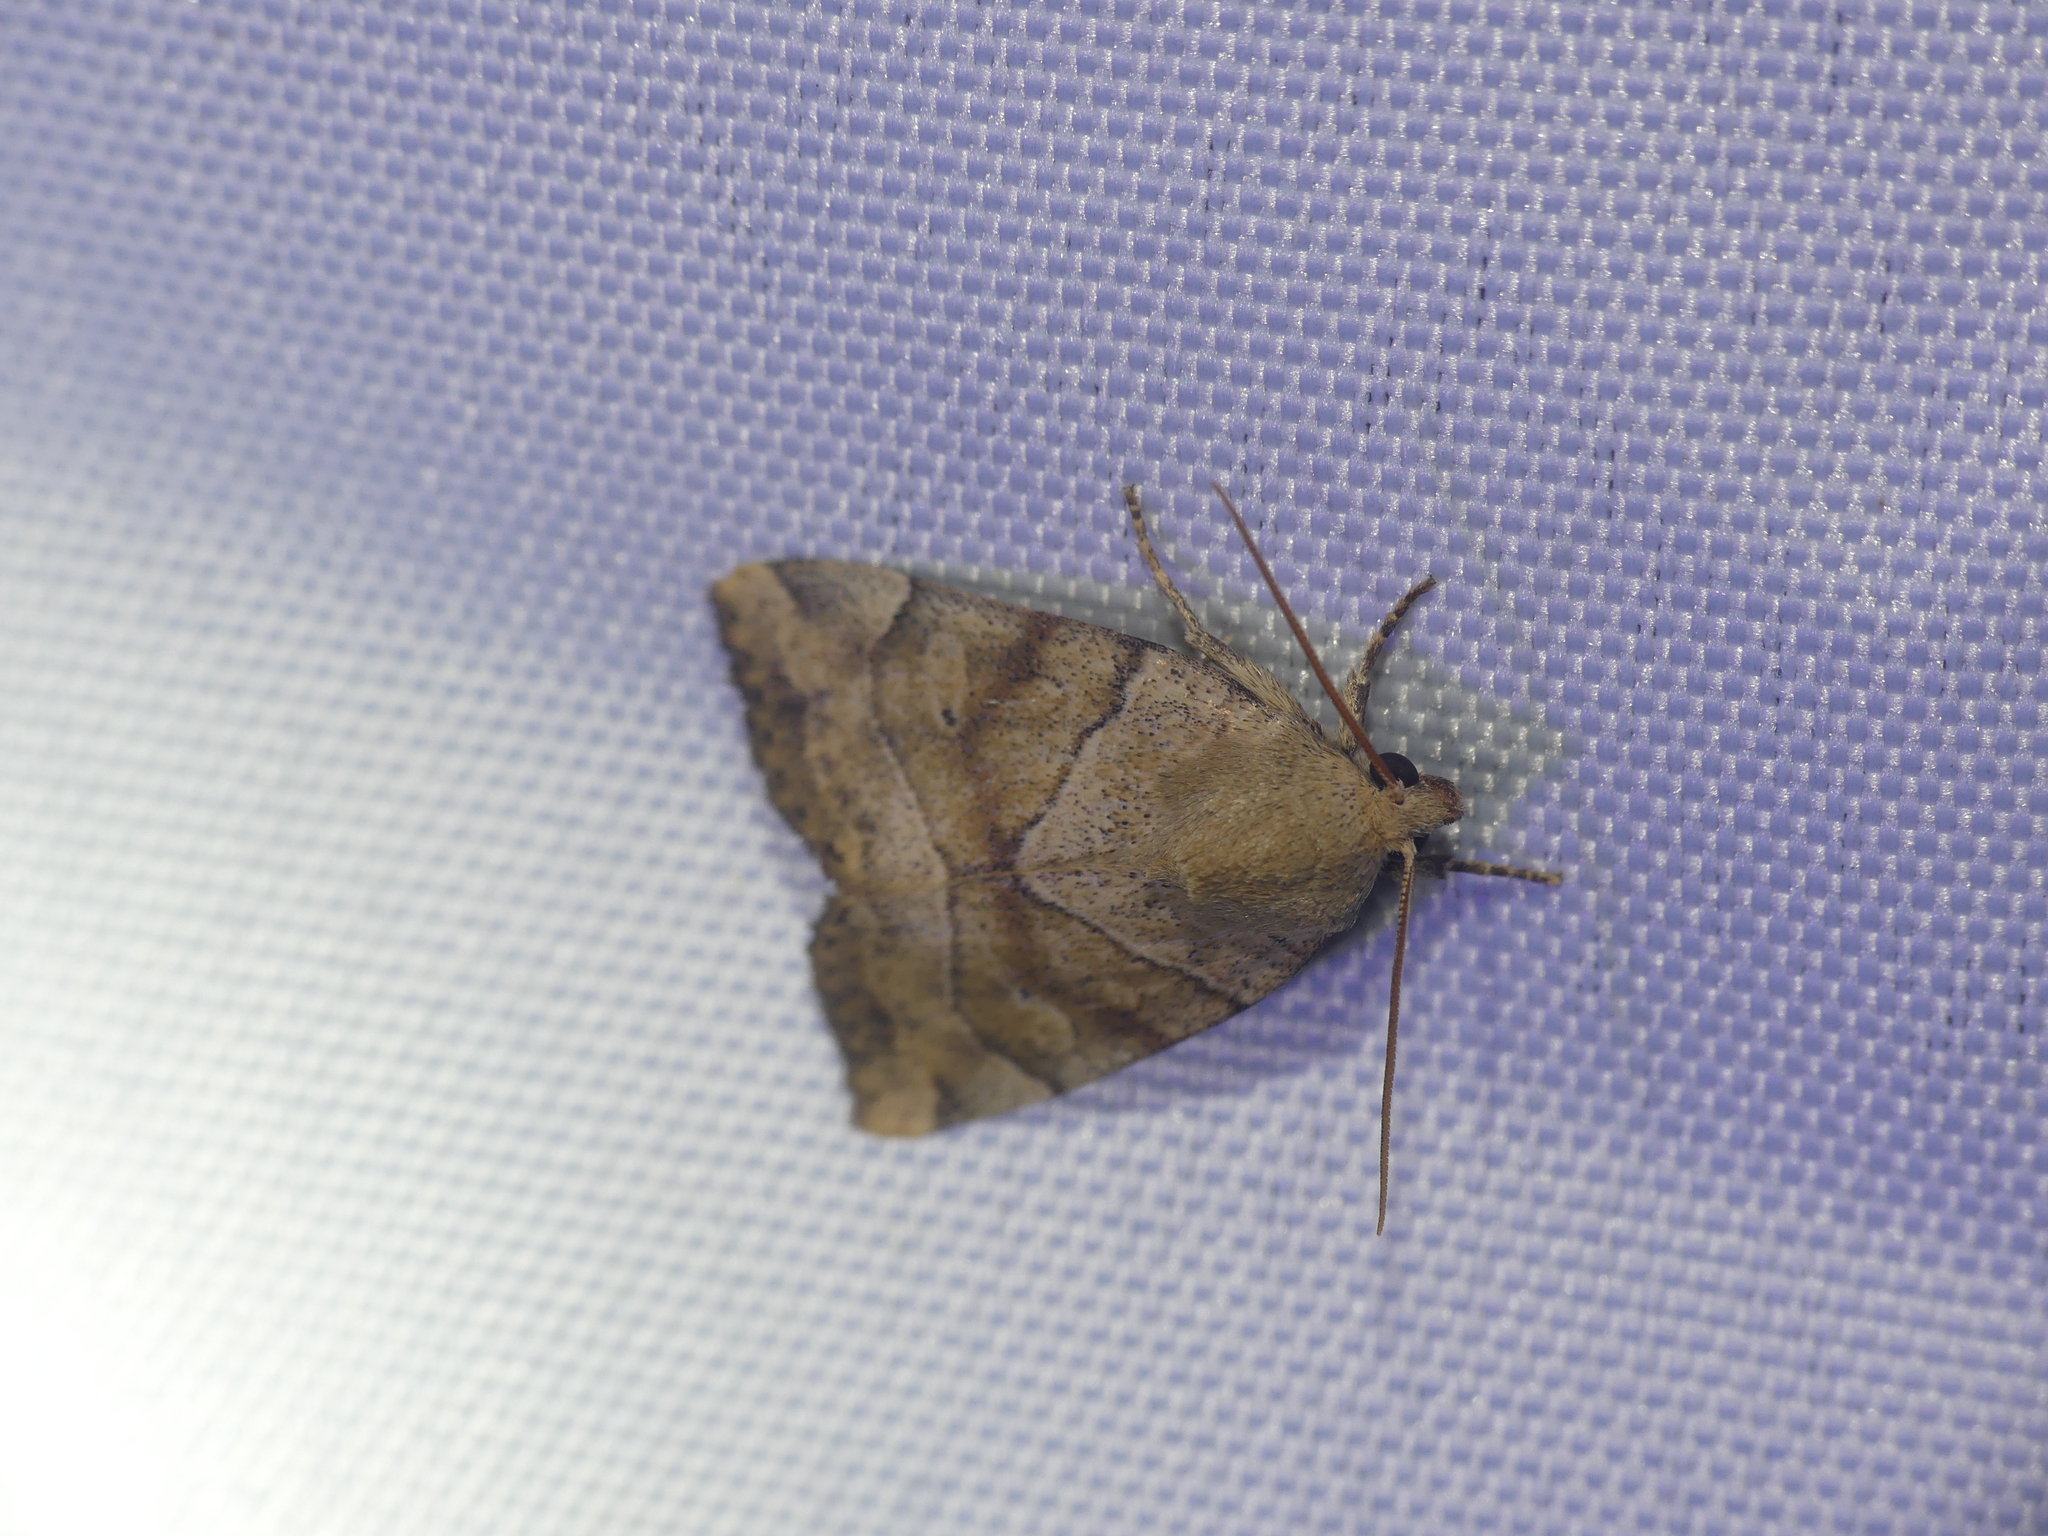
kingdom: Animalia
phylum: Arthropoda
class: Insecta
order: Lepidoptera
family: Noctuidae
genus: Cosmia
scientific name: Cosmia trapezina
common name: Dun-bar
